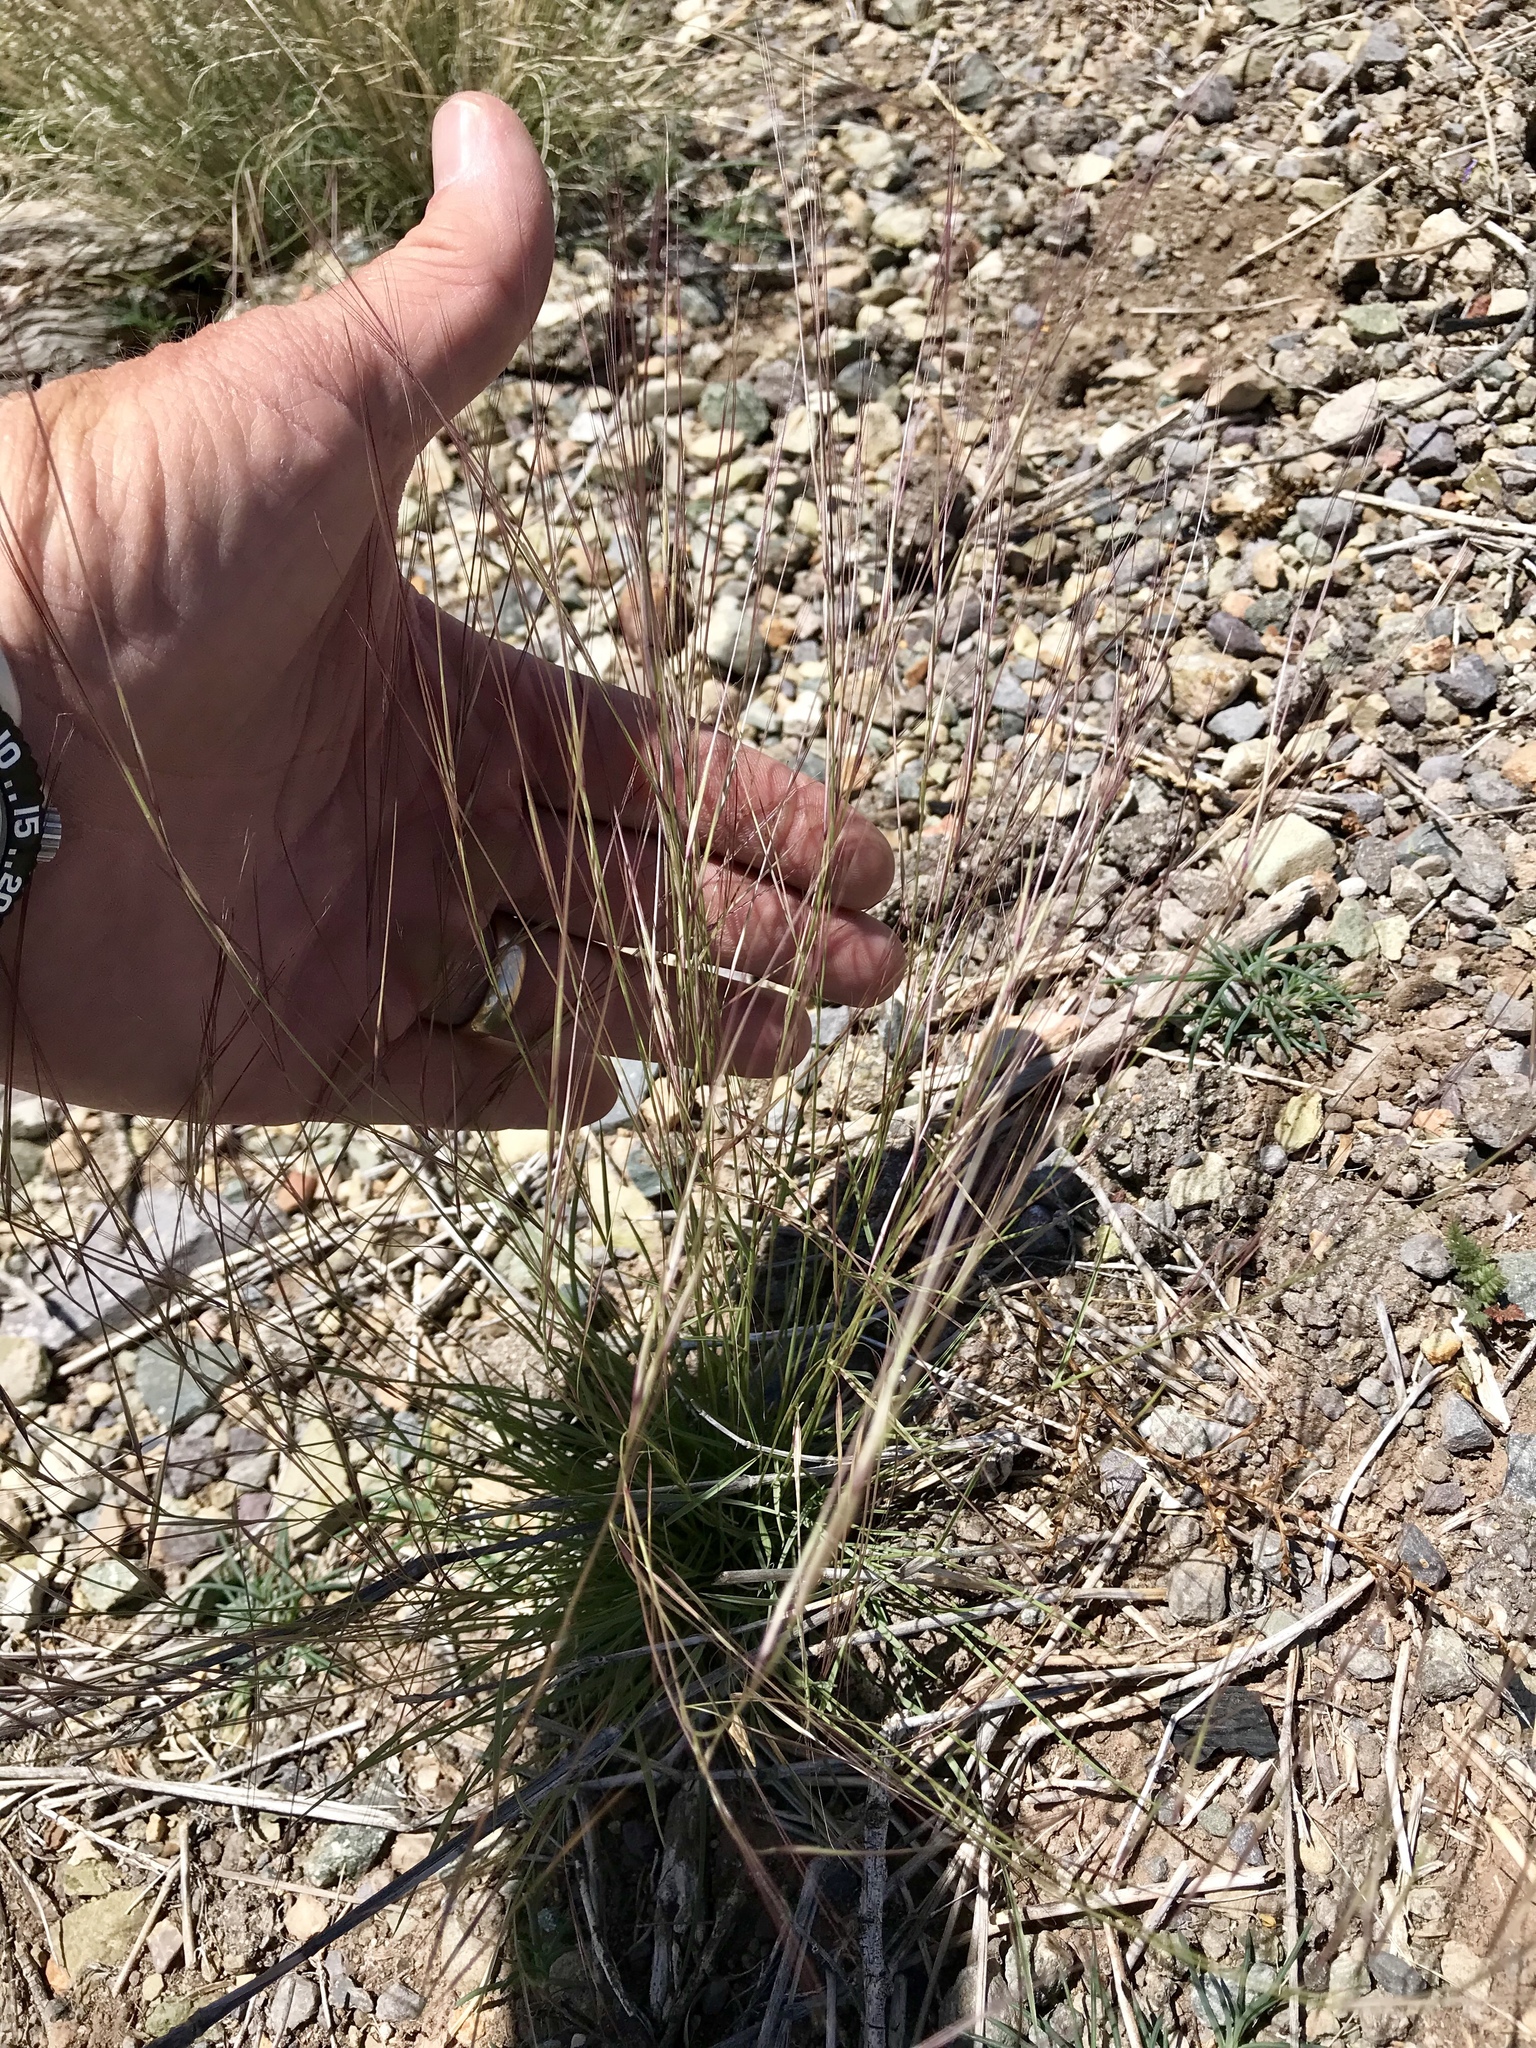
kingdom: Plantae
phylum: Tracheophyta
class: Liliopsida
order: Poales
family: Poaceae
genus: Aristida
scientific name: Aristida purpurea
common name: Purple threeawn
